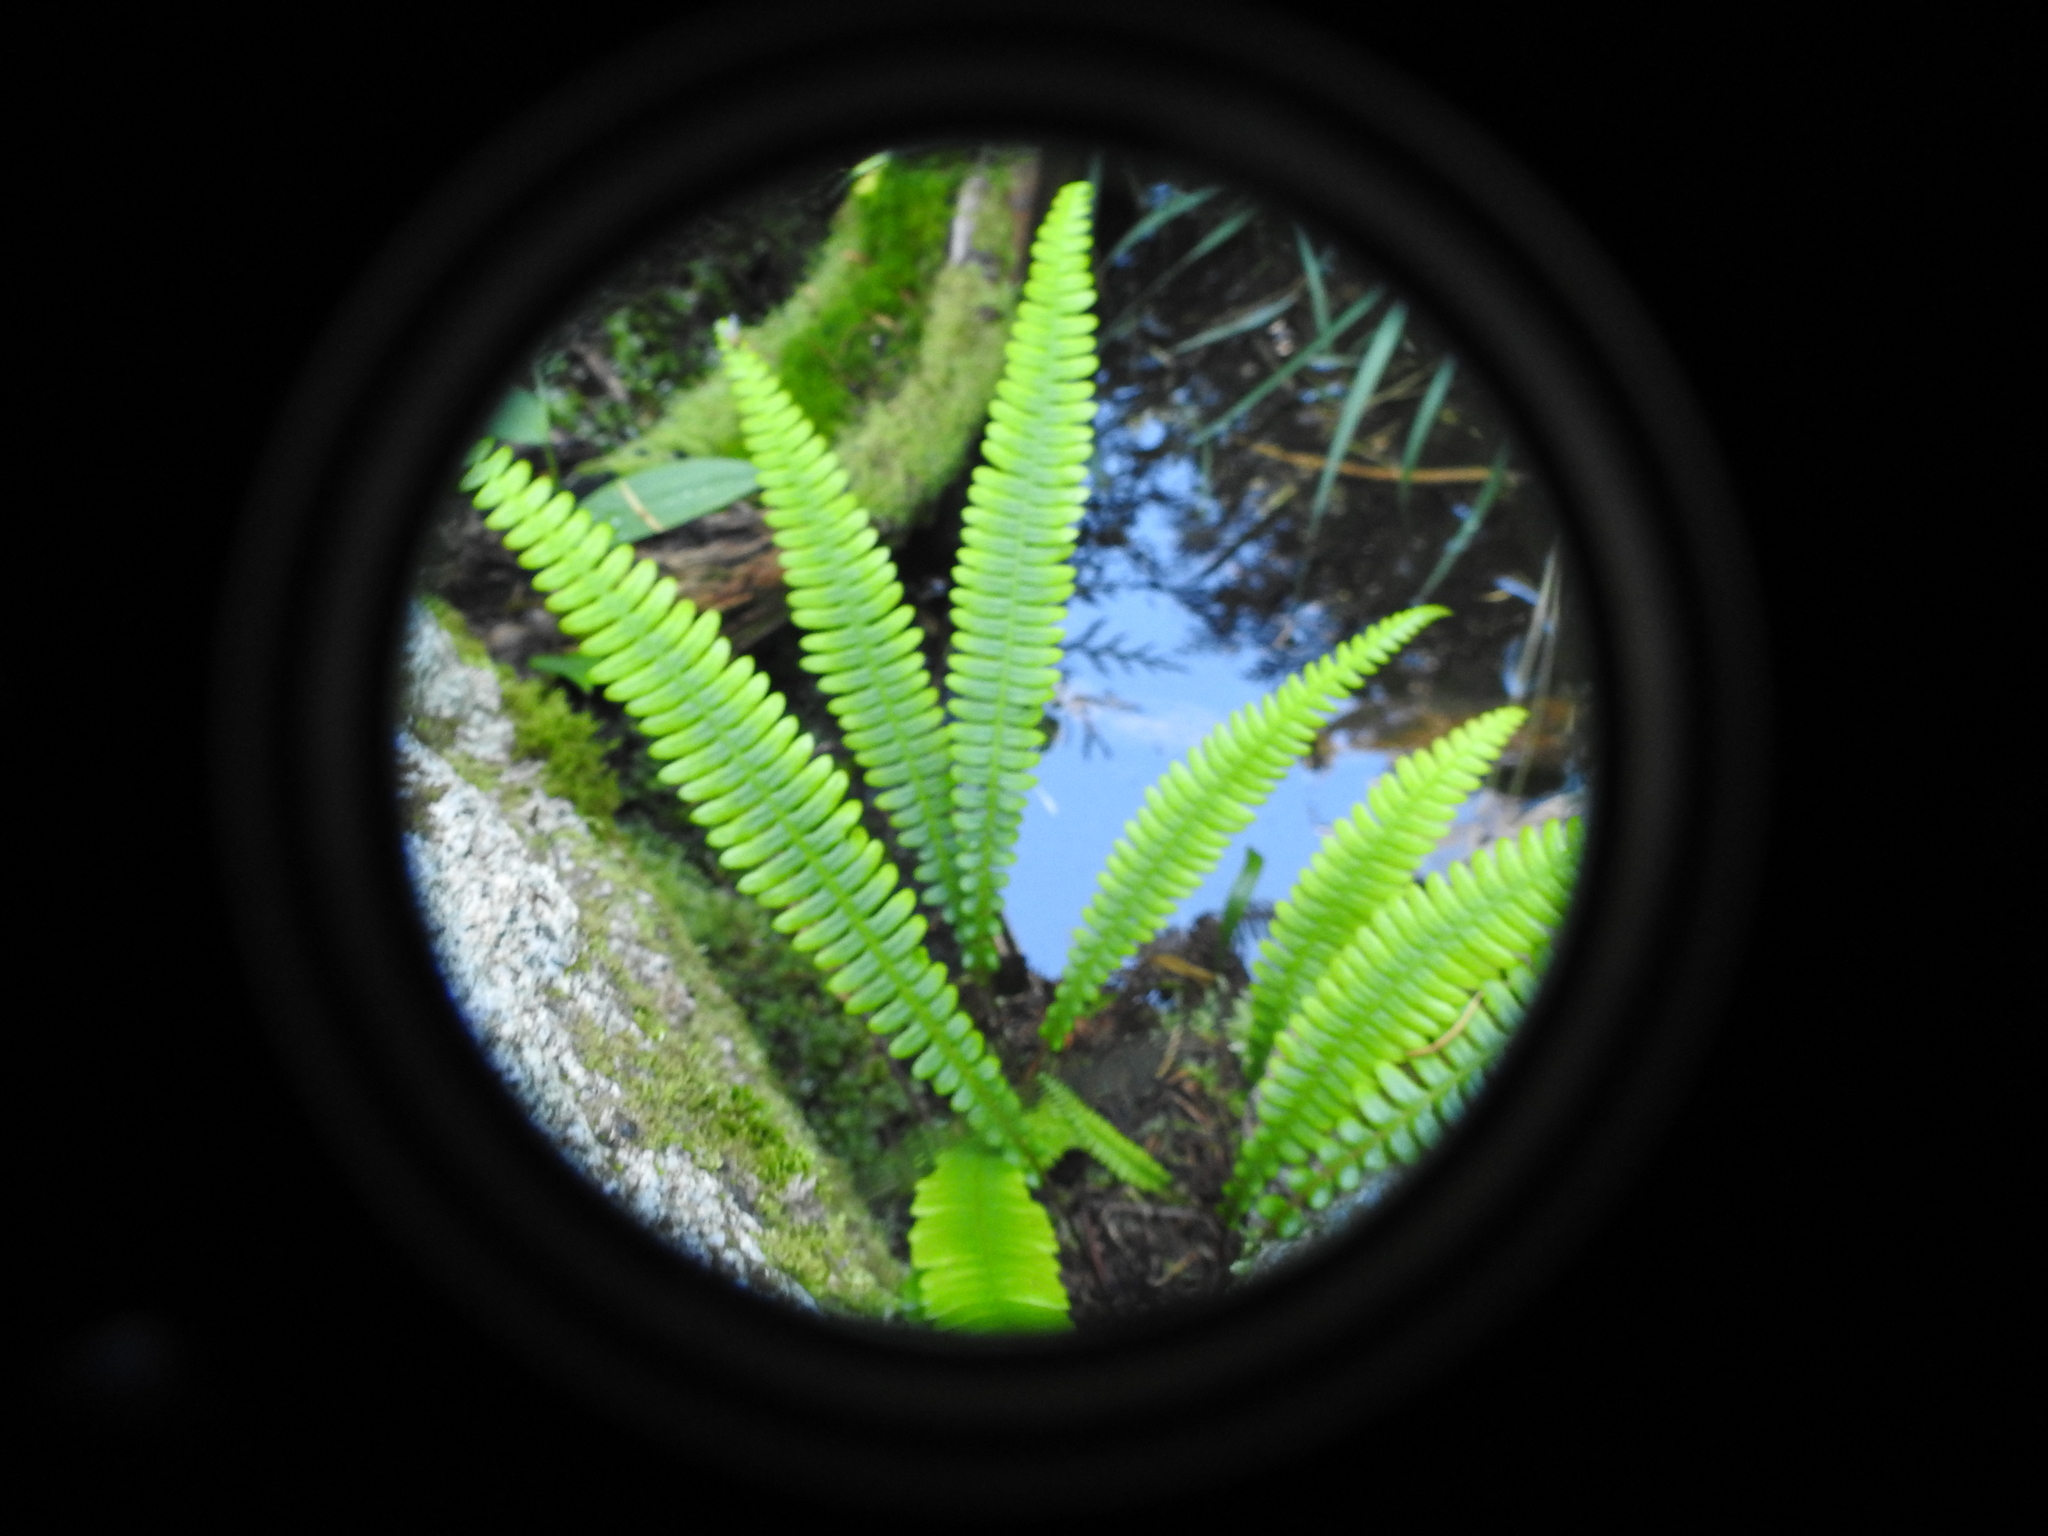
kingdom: Plantae
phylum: Tracheophyta
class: Polypodiopsida
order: Polypodiales
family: Blechnaceae
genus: Struthiopteris
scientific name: Struthiopteris spicant
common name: Deer fern
